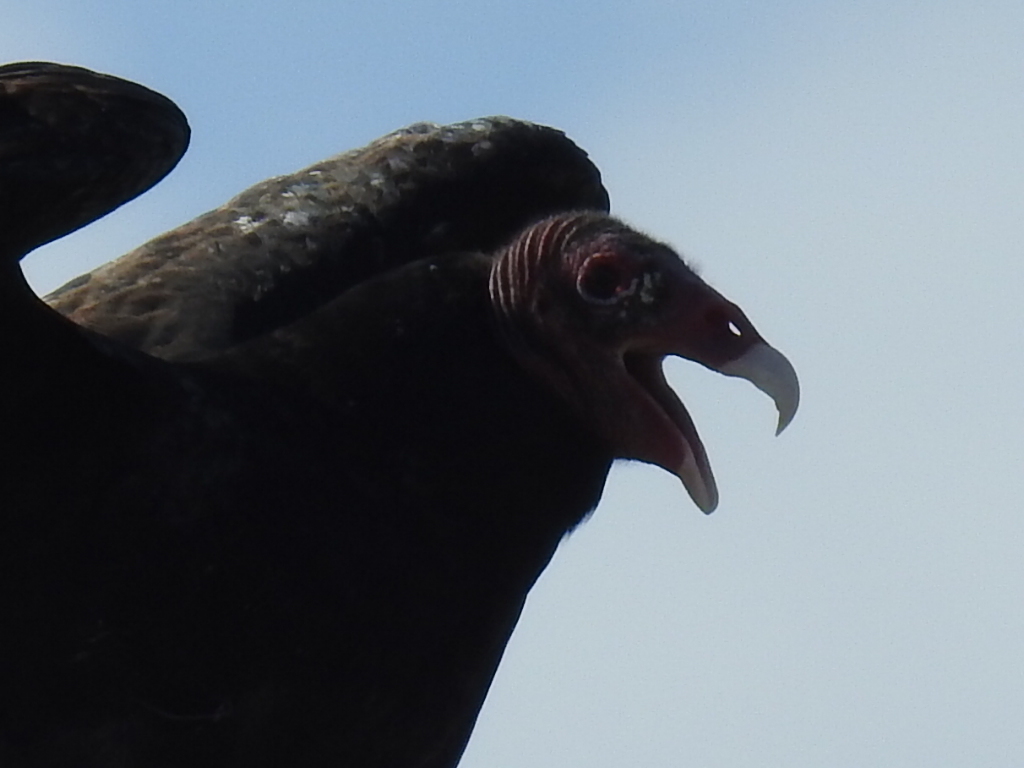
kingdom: Animalia
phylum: Chordata
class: Aves
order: Accipitriformes
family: Cathartidae
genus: Cathartes
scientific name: Cathartes aura
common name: Turkey vulture
